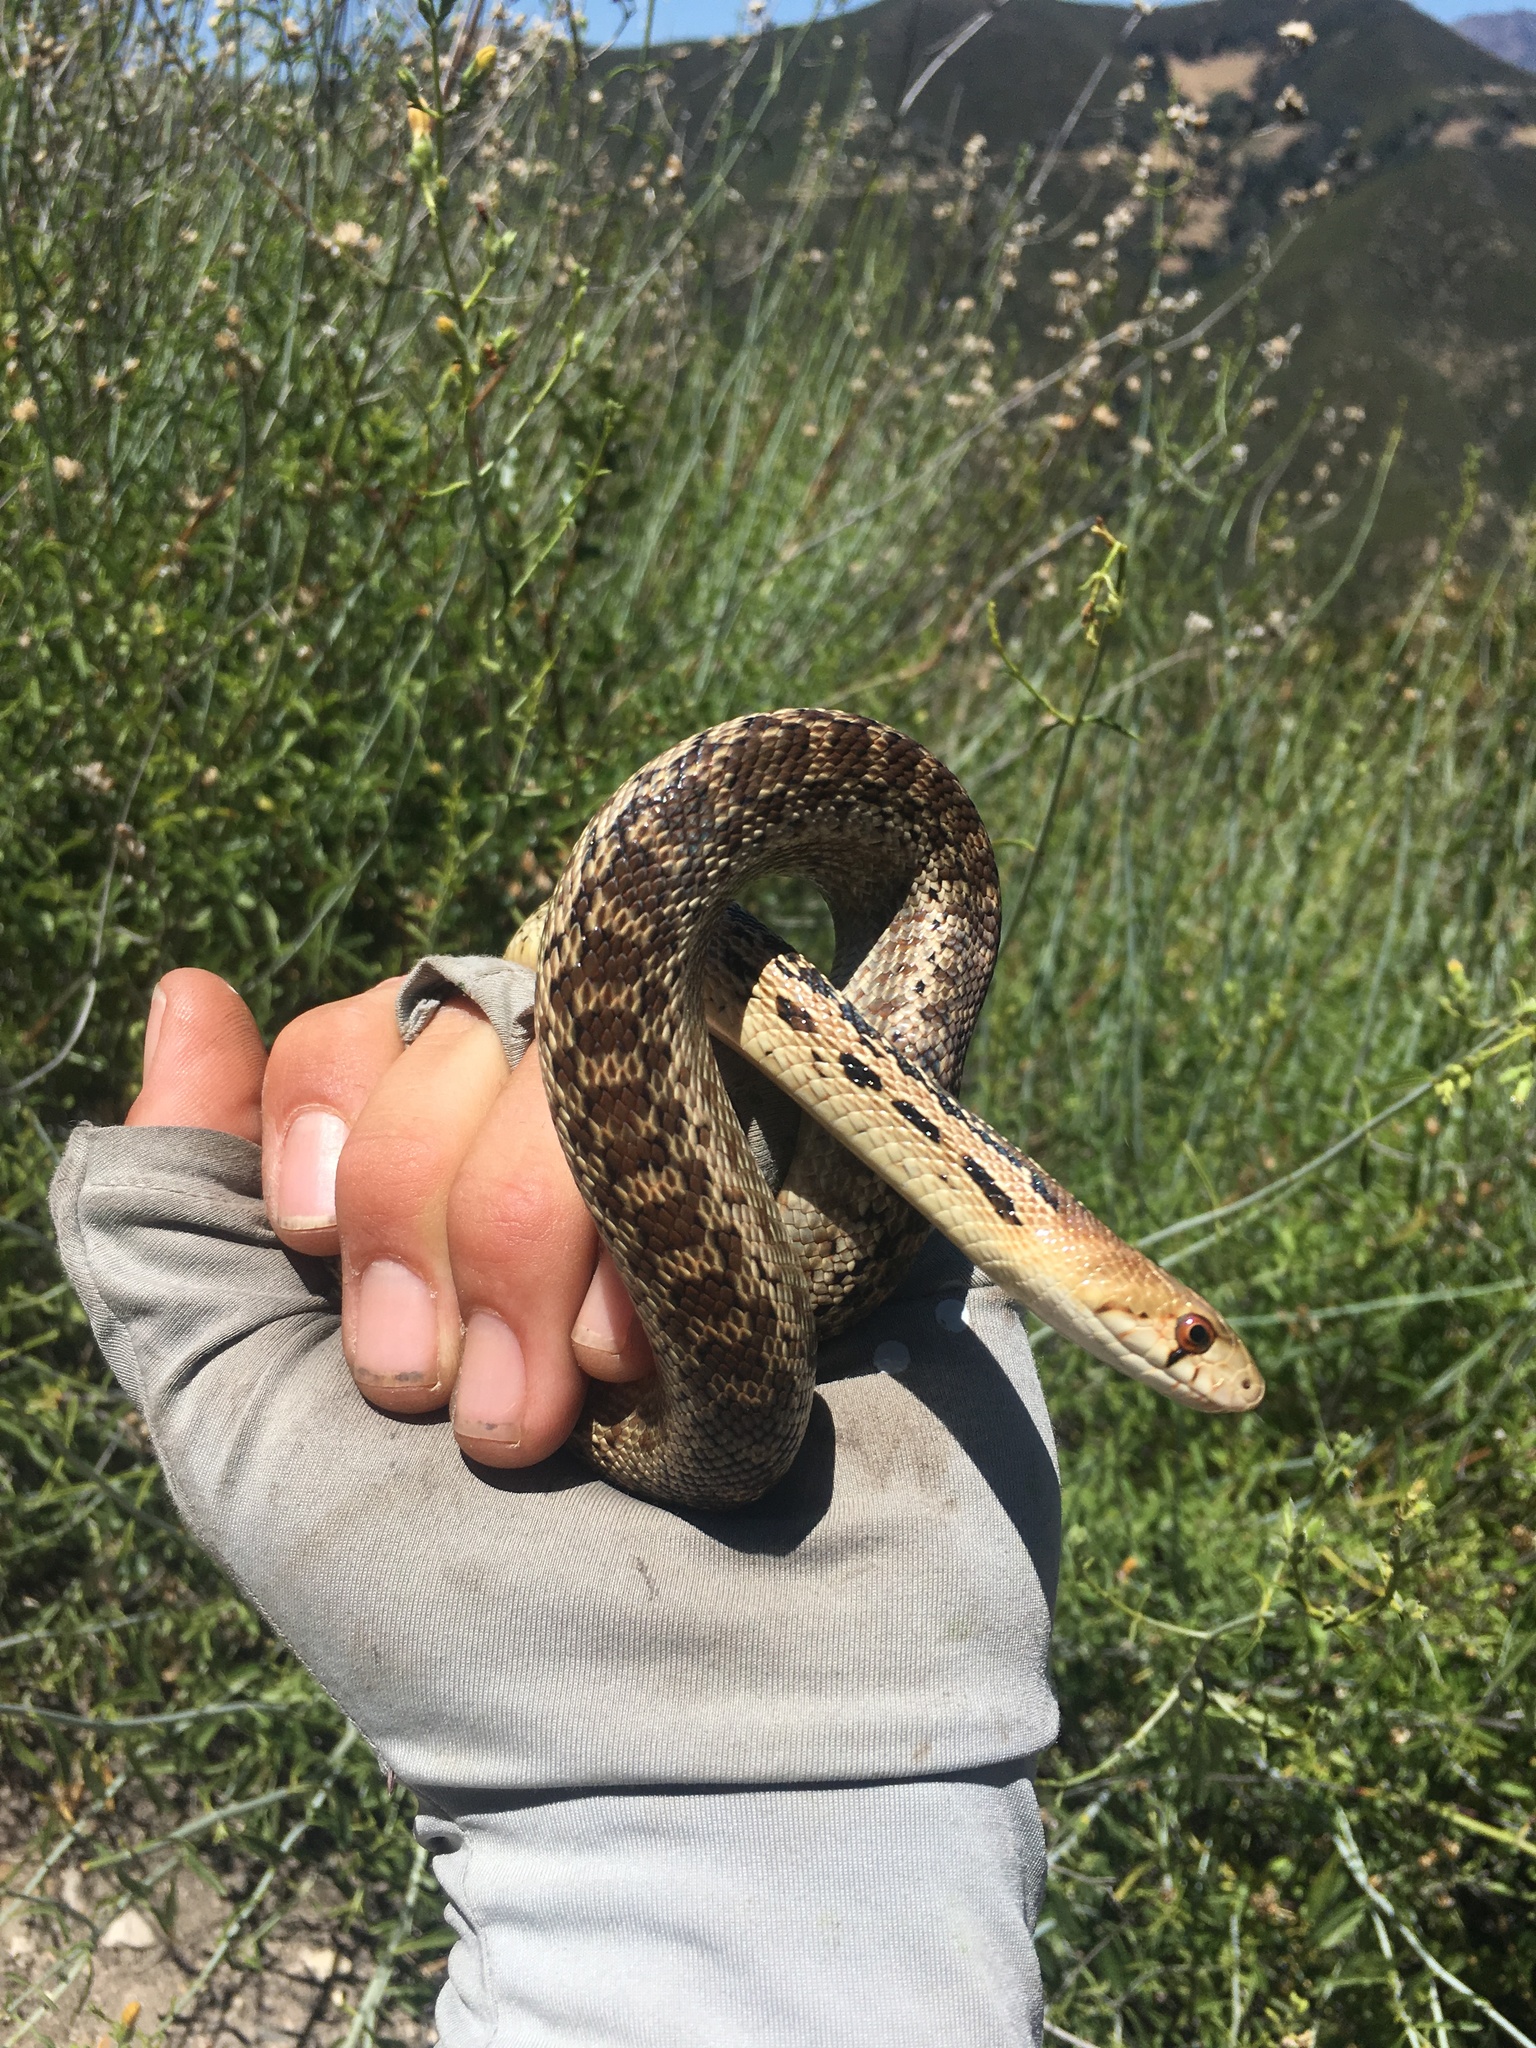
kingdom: Animalia
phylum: Chordata
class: Squamata
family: Colubridae
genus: Pituophis
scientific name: Pituophis catenifer
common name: Gopher snake
